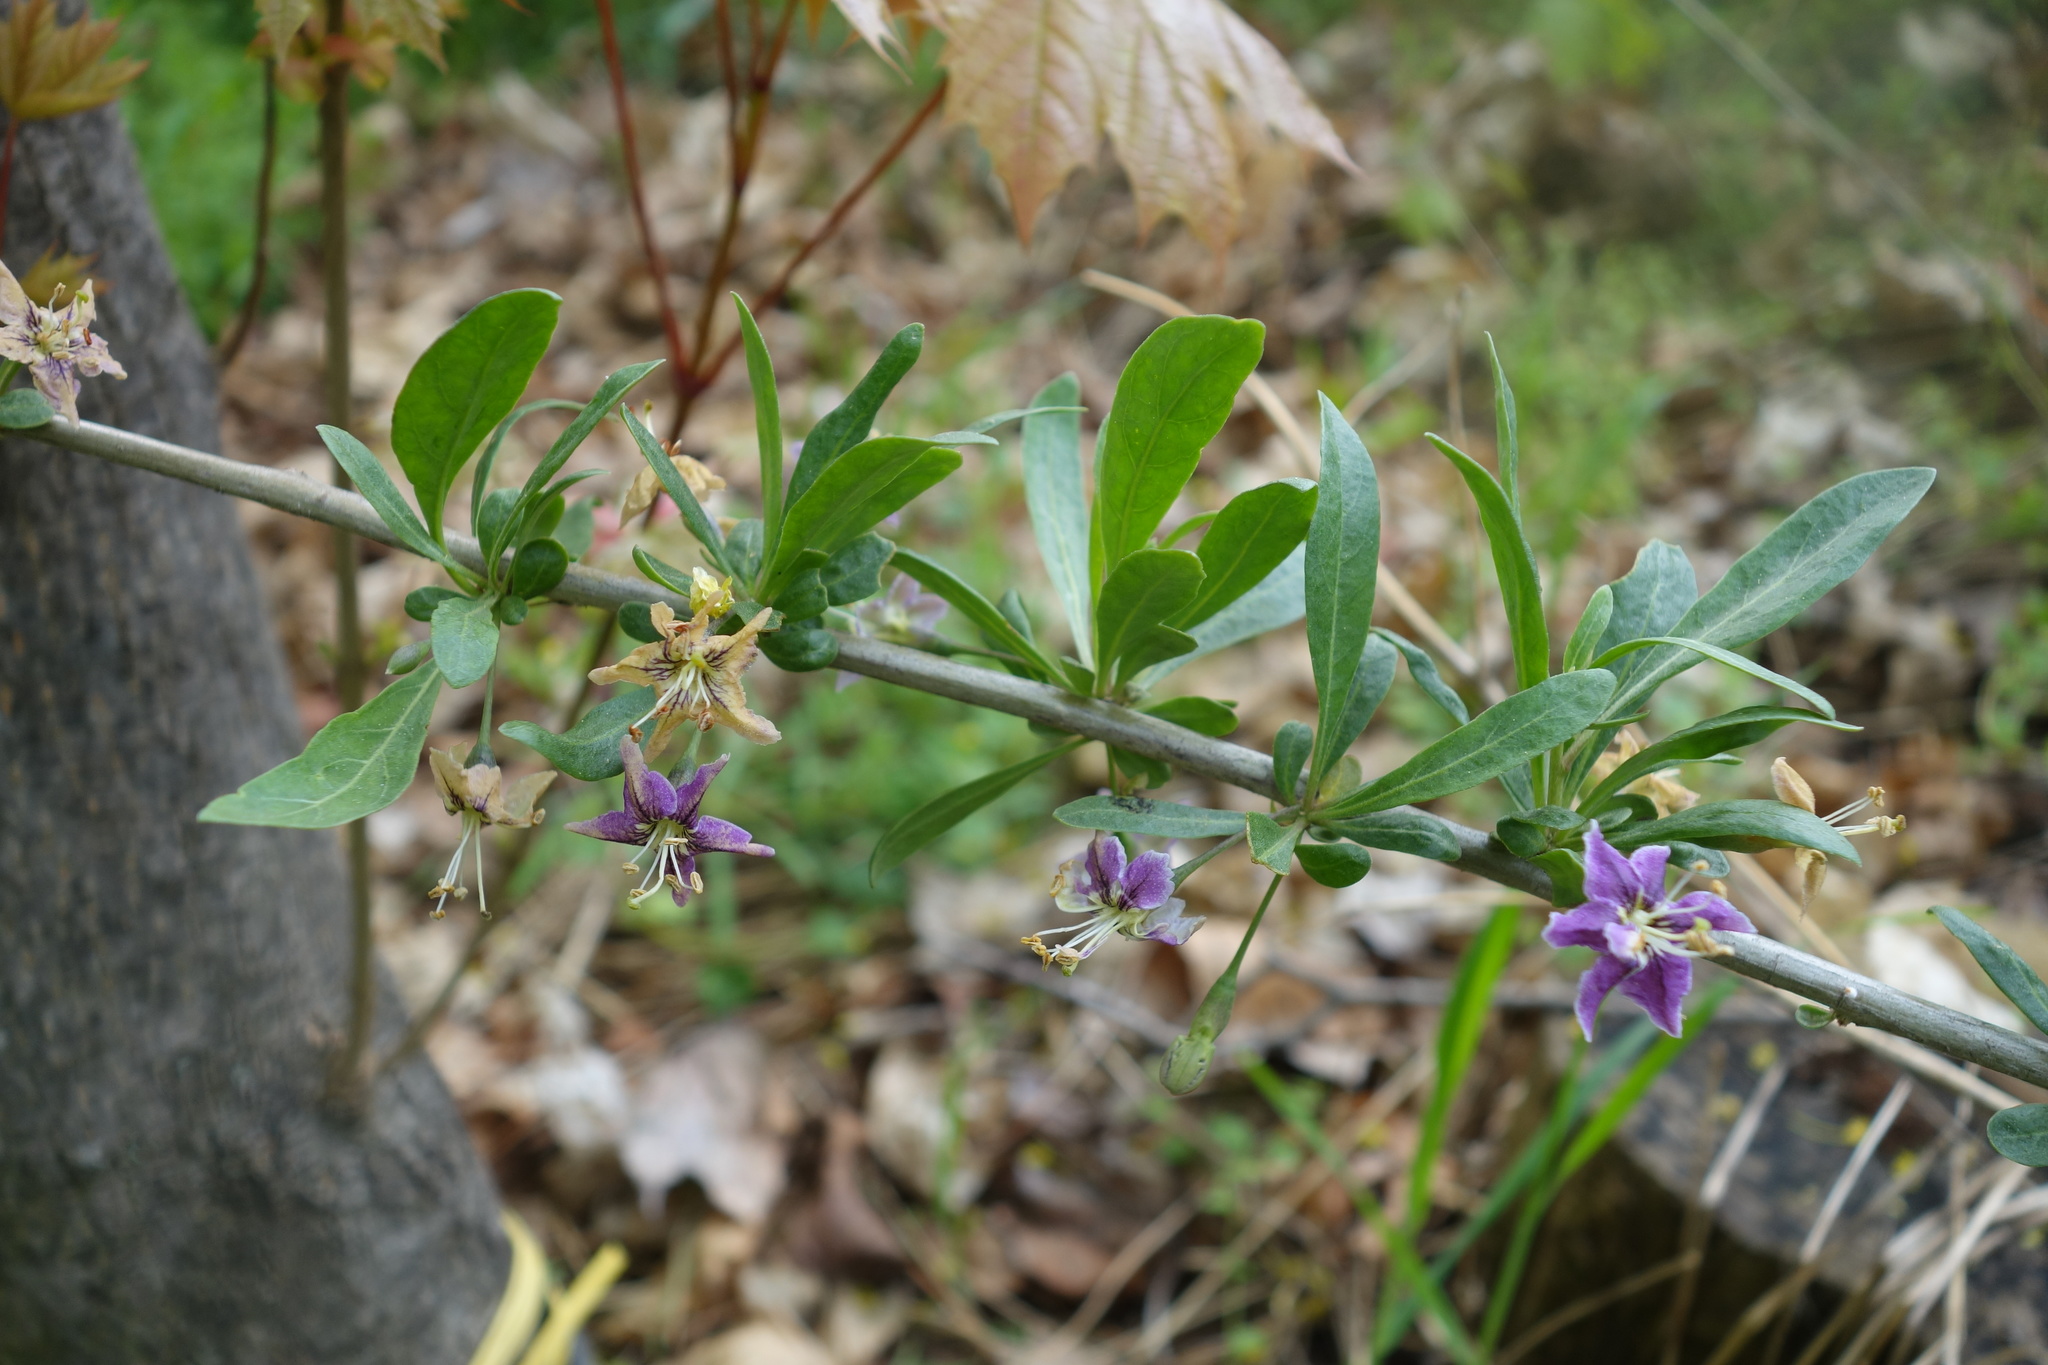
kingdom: Plantae
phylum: Tracheophyta
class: Magnoliopsida
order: Solanales
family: Solanaceae
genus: Lycium
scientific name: Lycium barbarum
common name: Duke of argyll's teaplant
